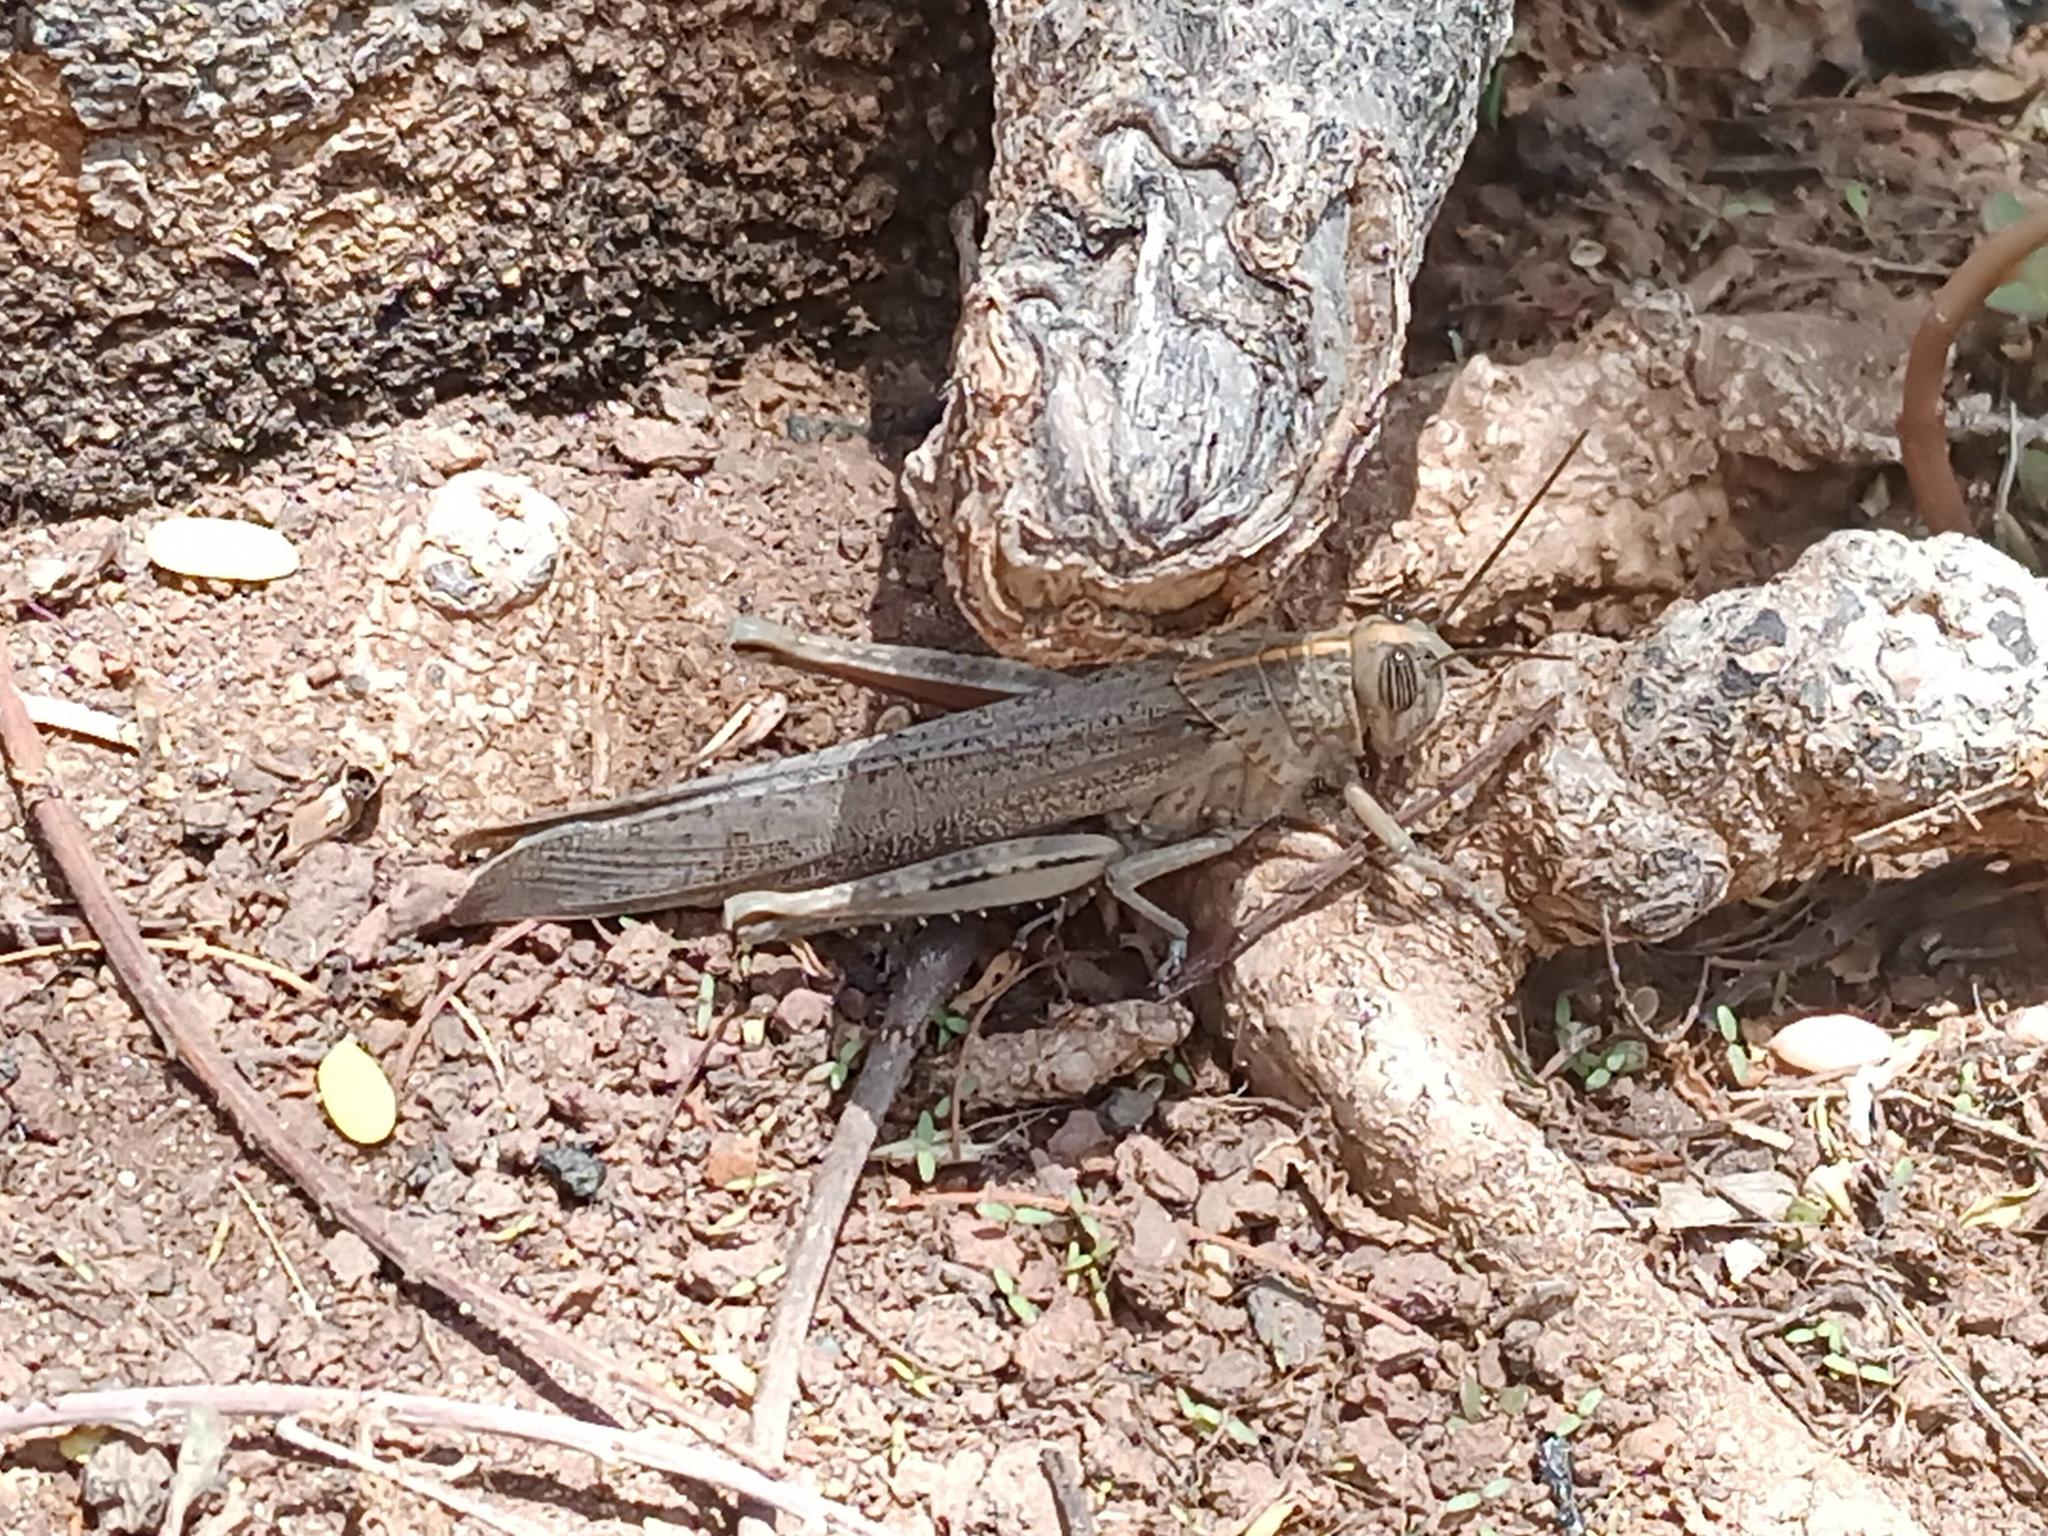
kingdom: Animalia
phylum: Arthropoda
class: Insecta
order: Orthoptera
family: Acrididae
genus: Anacridium
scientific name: Anacridium aegyptium
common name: Egyptian grasshopper
